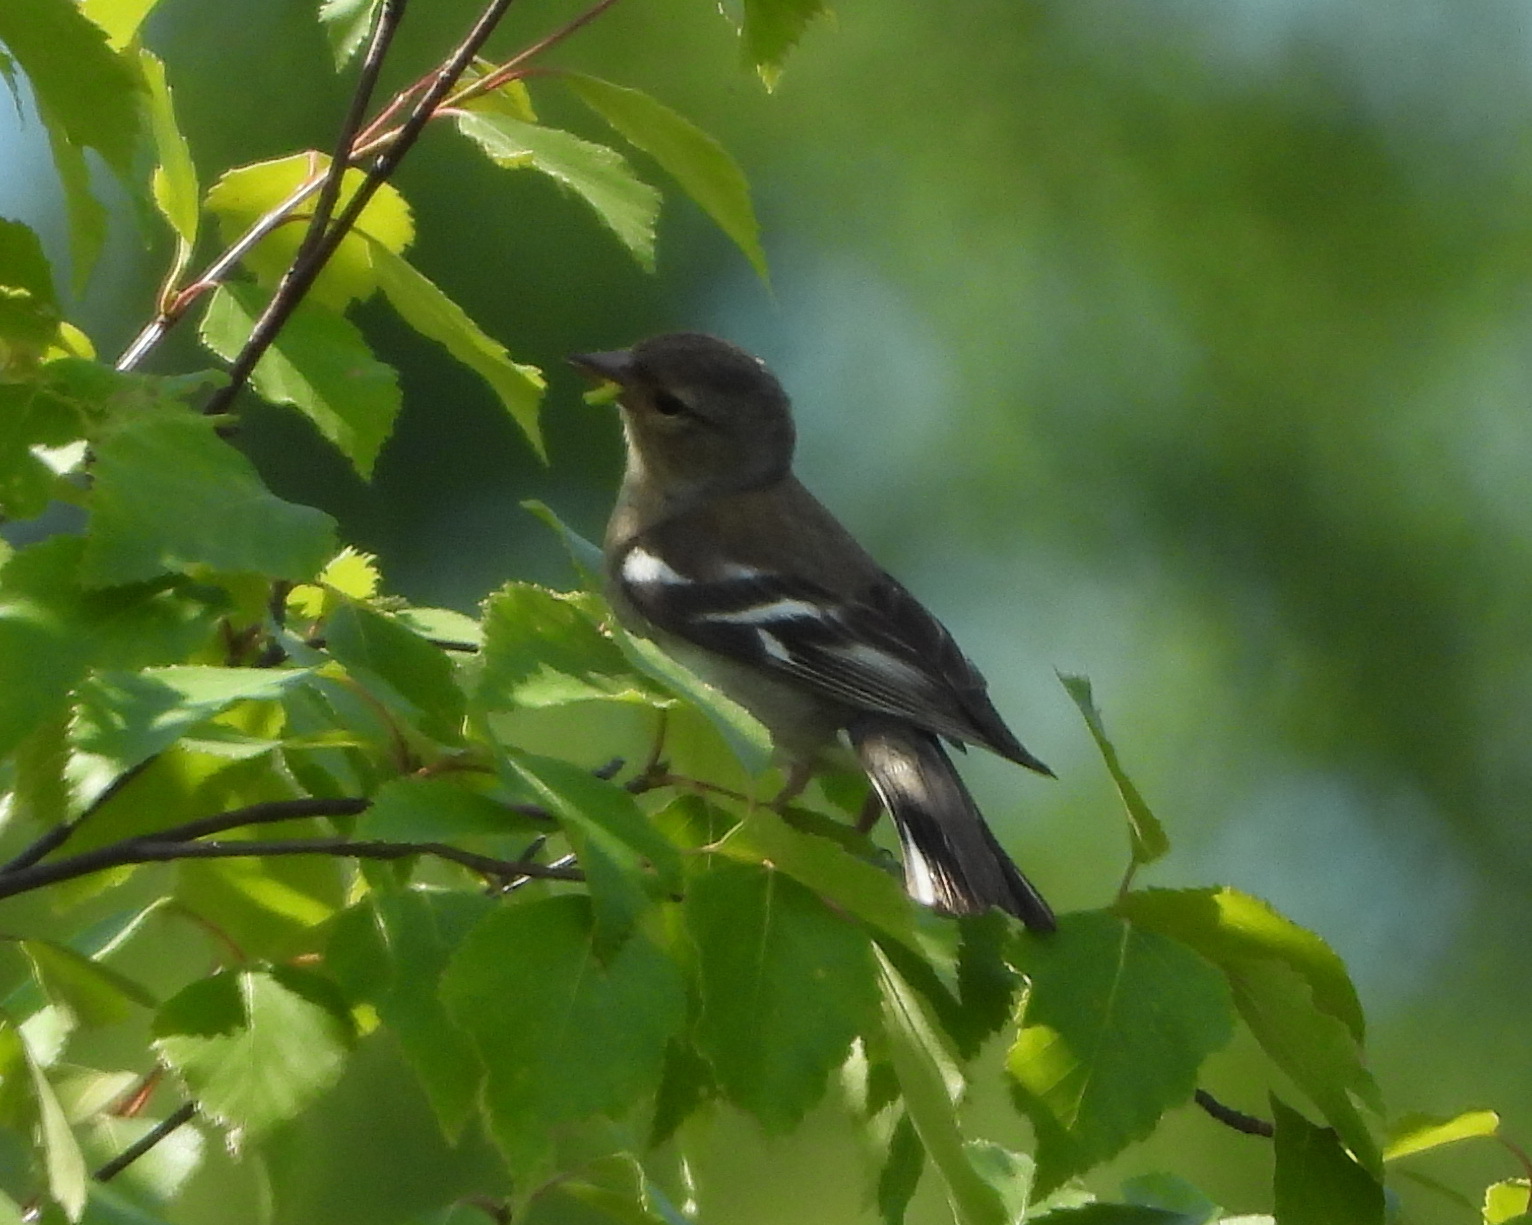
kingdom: Animalia
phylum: Chordata
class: Aves
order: Passeriformes
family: Fringillidae
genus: Fringilla
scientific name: Fringilla coelebs
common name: Common chaffinch
